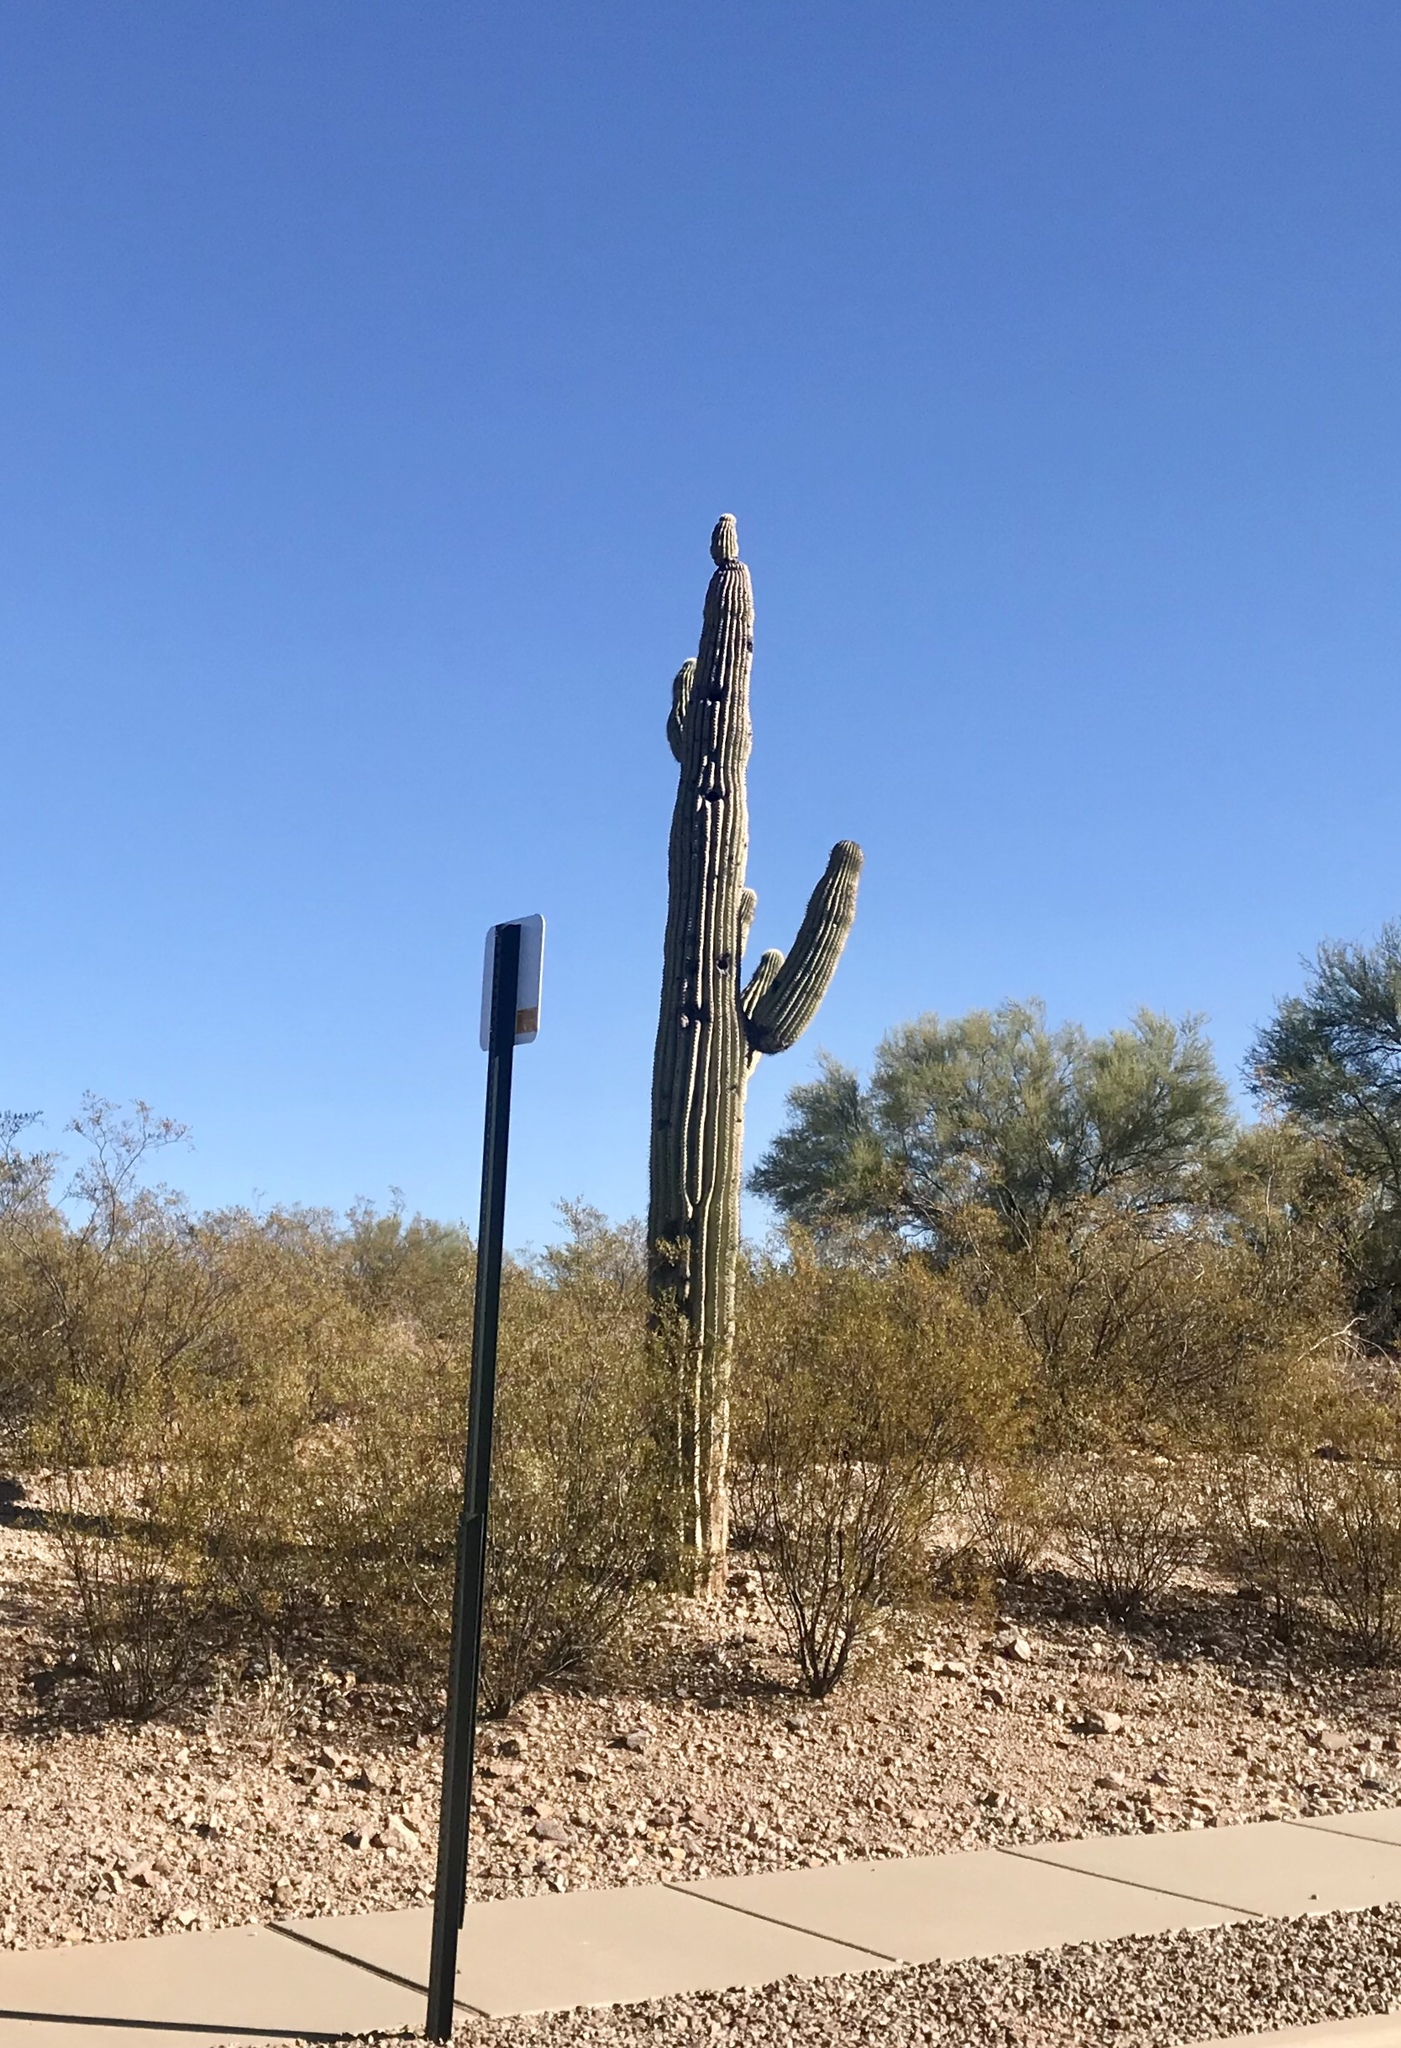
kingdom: Plantae
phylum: Tracheophyta
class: Magnoliopsida
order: Caryophyllales
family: Cactaceae
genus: Carnegiea
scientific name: Carnegiea gigantea
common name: Saguaro
